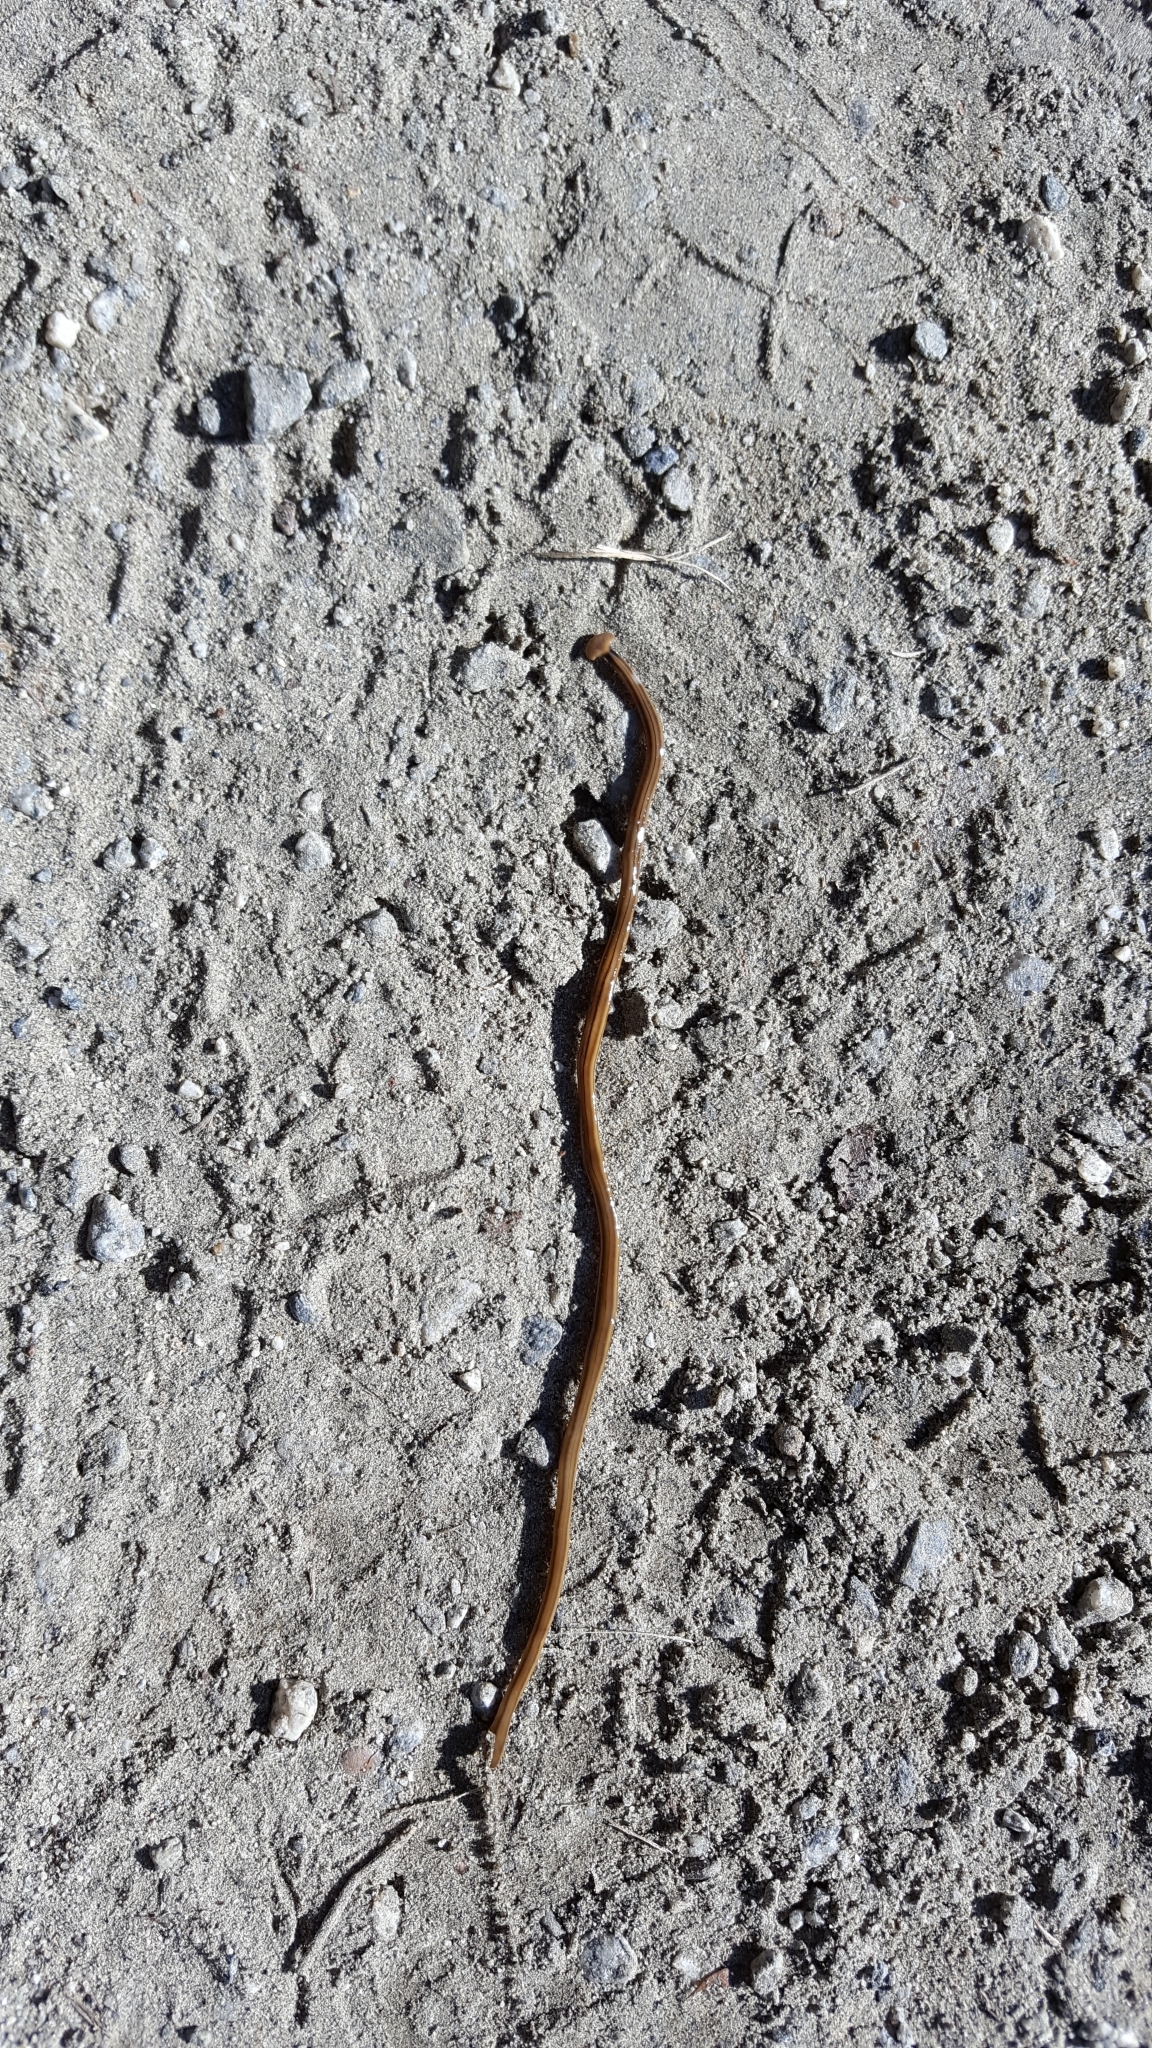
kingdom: Animalia
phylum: Platyhelminthes
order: Tricladida
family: Geoplanidae
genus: Bipalium
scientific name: Bipalium kewense
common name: Hammerhead flatworm
